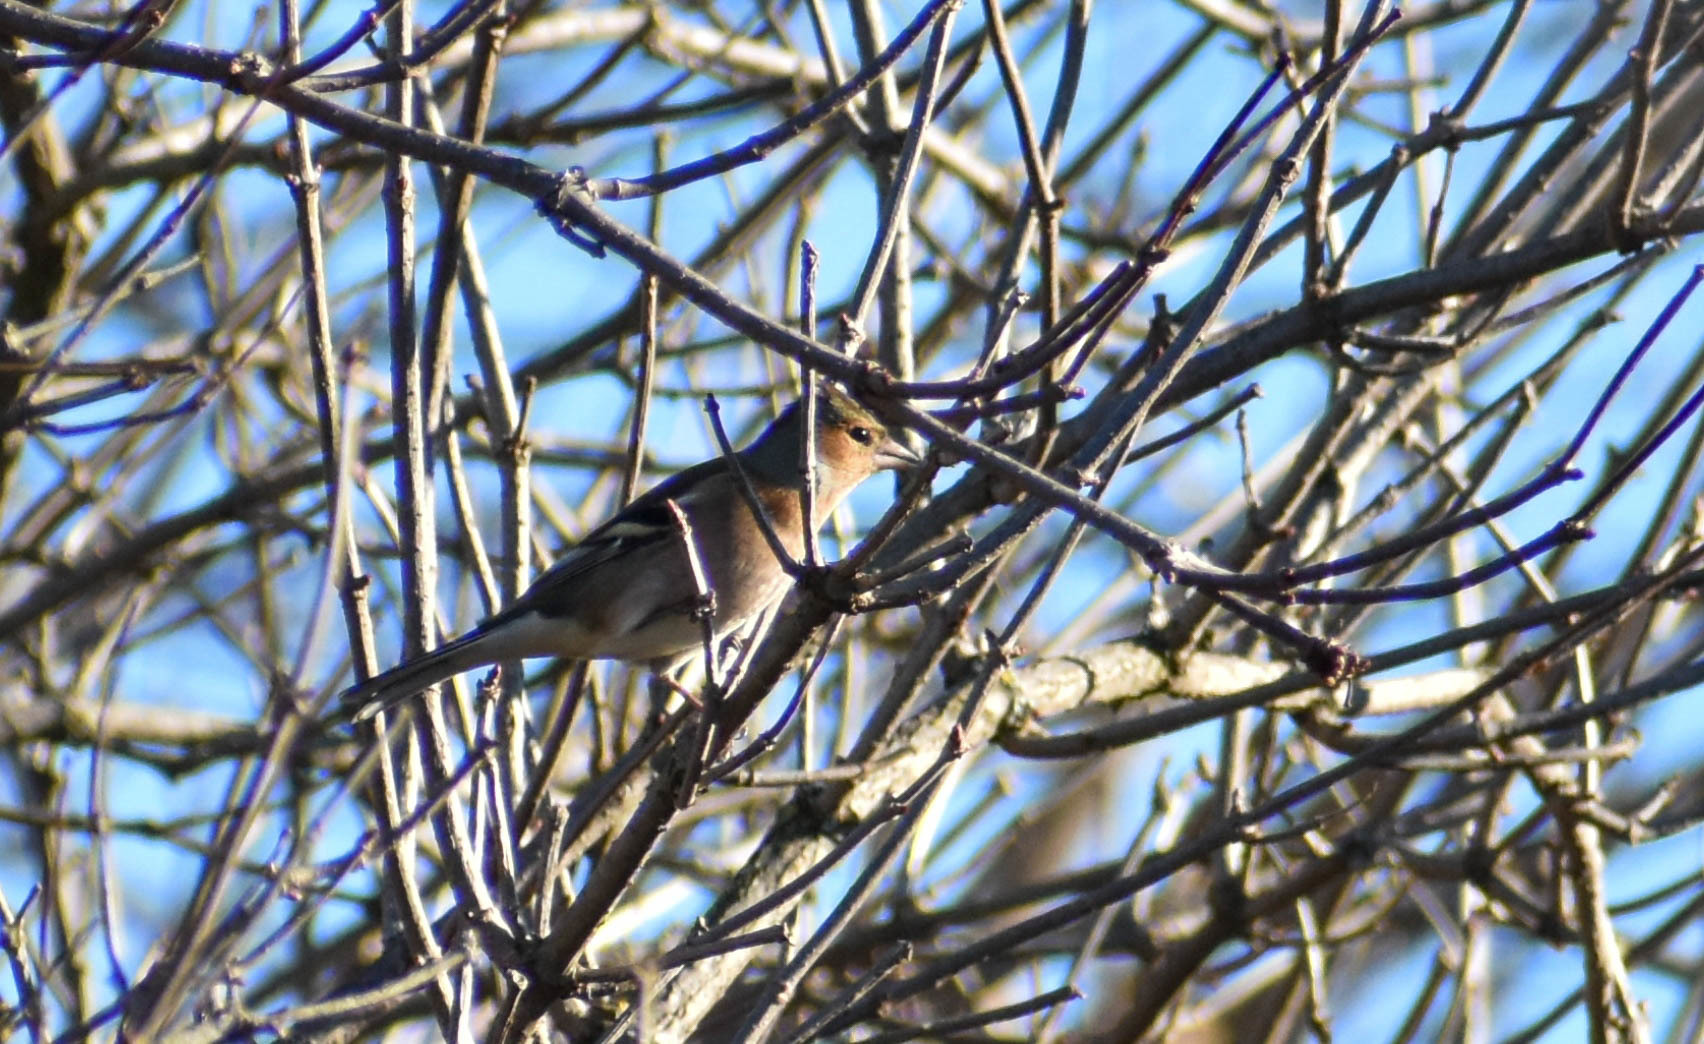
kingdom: Animalia
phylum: Chordata
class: Aves
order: Passeriformes
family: Fringillidae
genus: Fringilla
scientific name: Fringilla coelebs
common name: Common chaffinch
